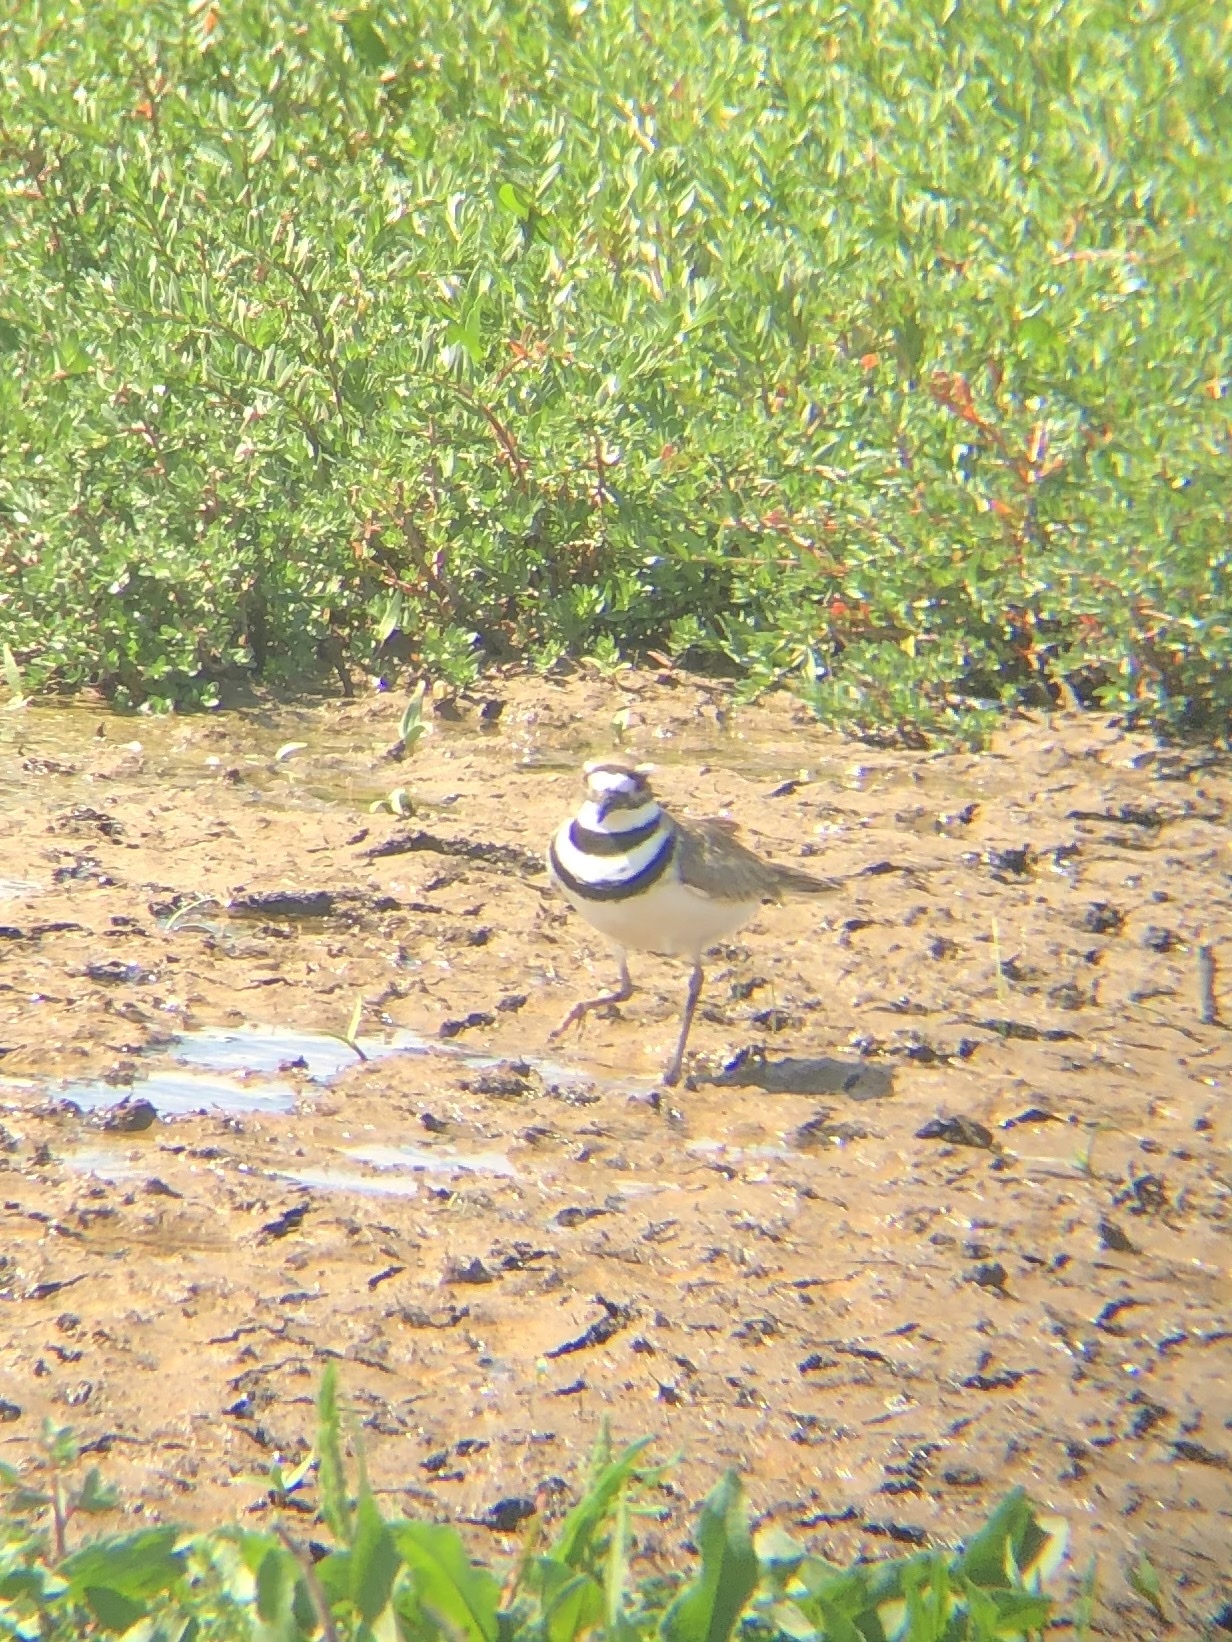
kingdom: Animalia
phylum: Chordata
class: Aves
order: Charadriiformes
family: Charadriidae
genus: Charadrius
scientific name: Charadrius vociferus
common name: Killdeer
